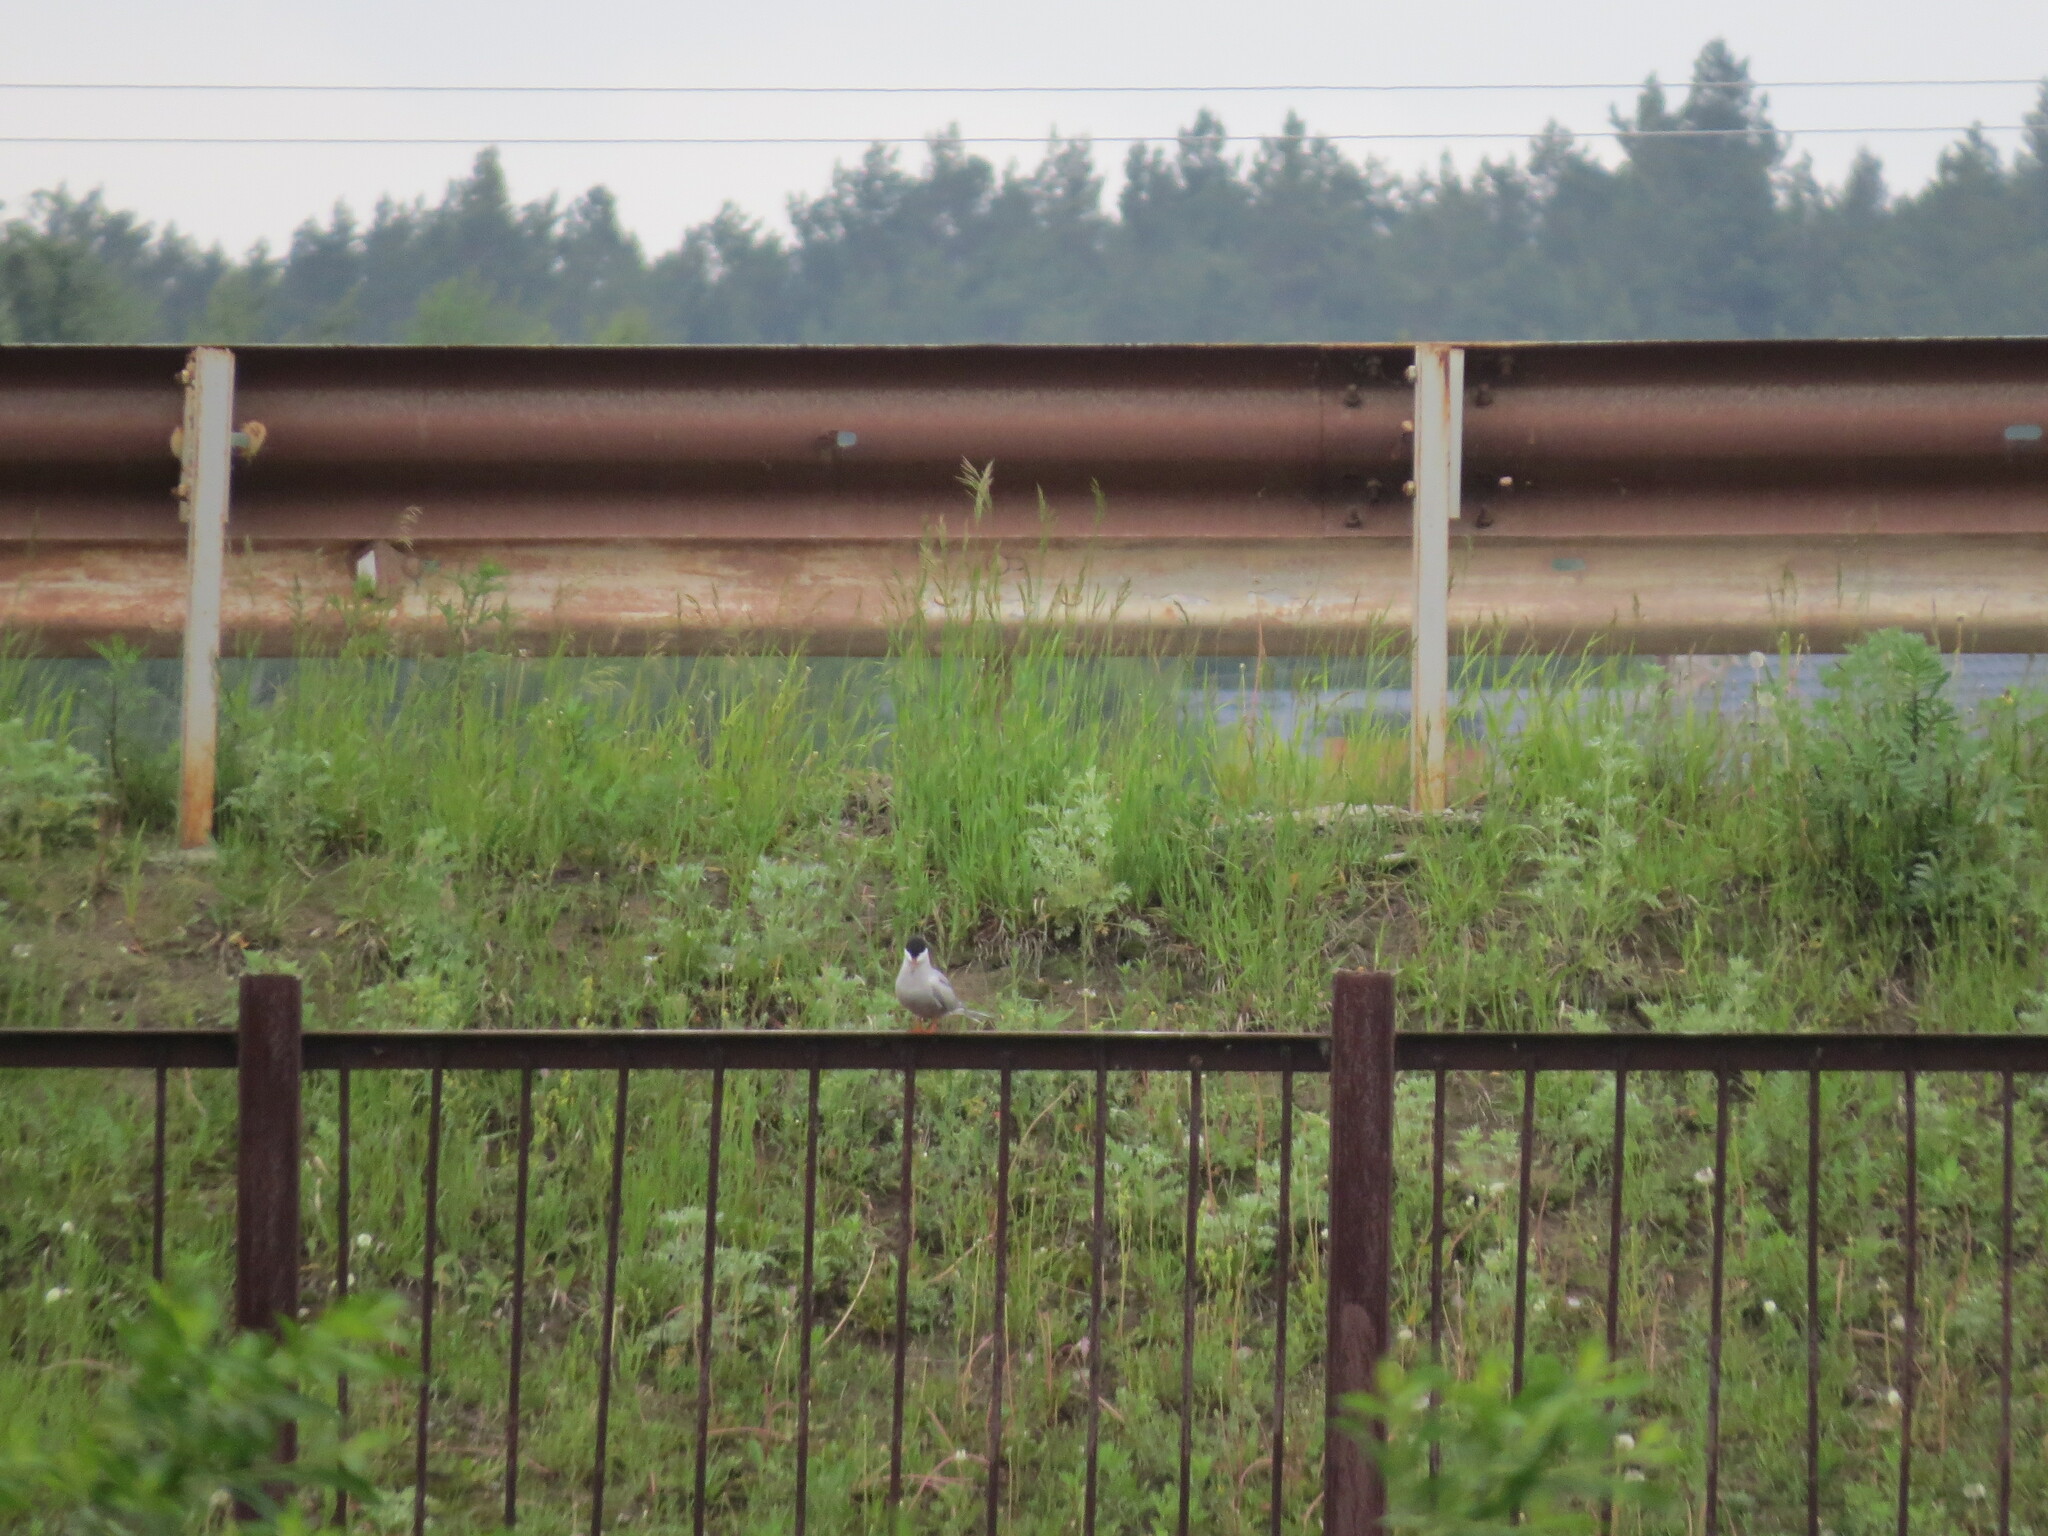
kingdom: Animalia
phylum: Chordata
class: Aves
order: Charadriiformes
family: Laridae
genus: Sterna
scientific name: Sterna hirundo
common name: Common tern
